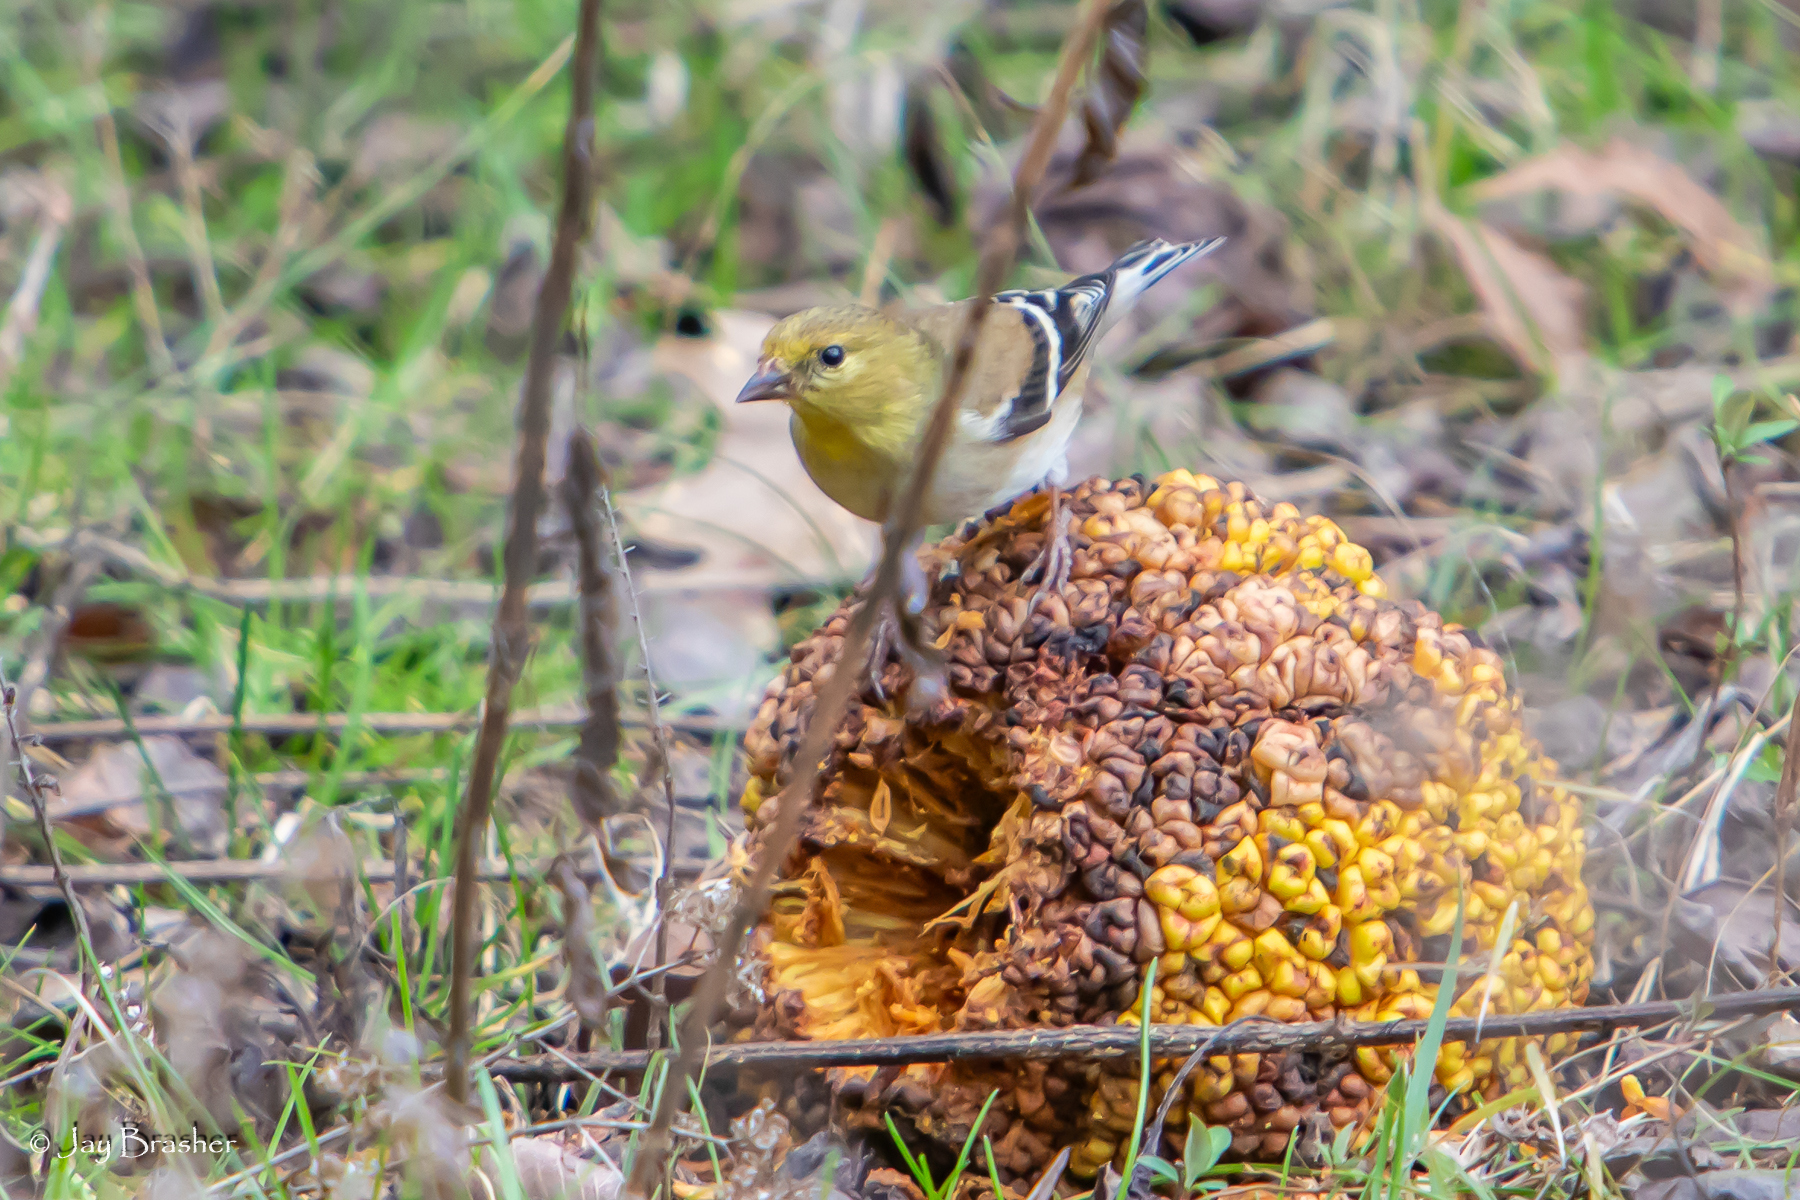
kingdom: Plantae
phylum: Tracheophyta
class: Magnoliopsida
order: Rosales
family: Moraceae
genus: Maclura
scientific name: Maclura pomifera
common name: Osage-orange
